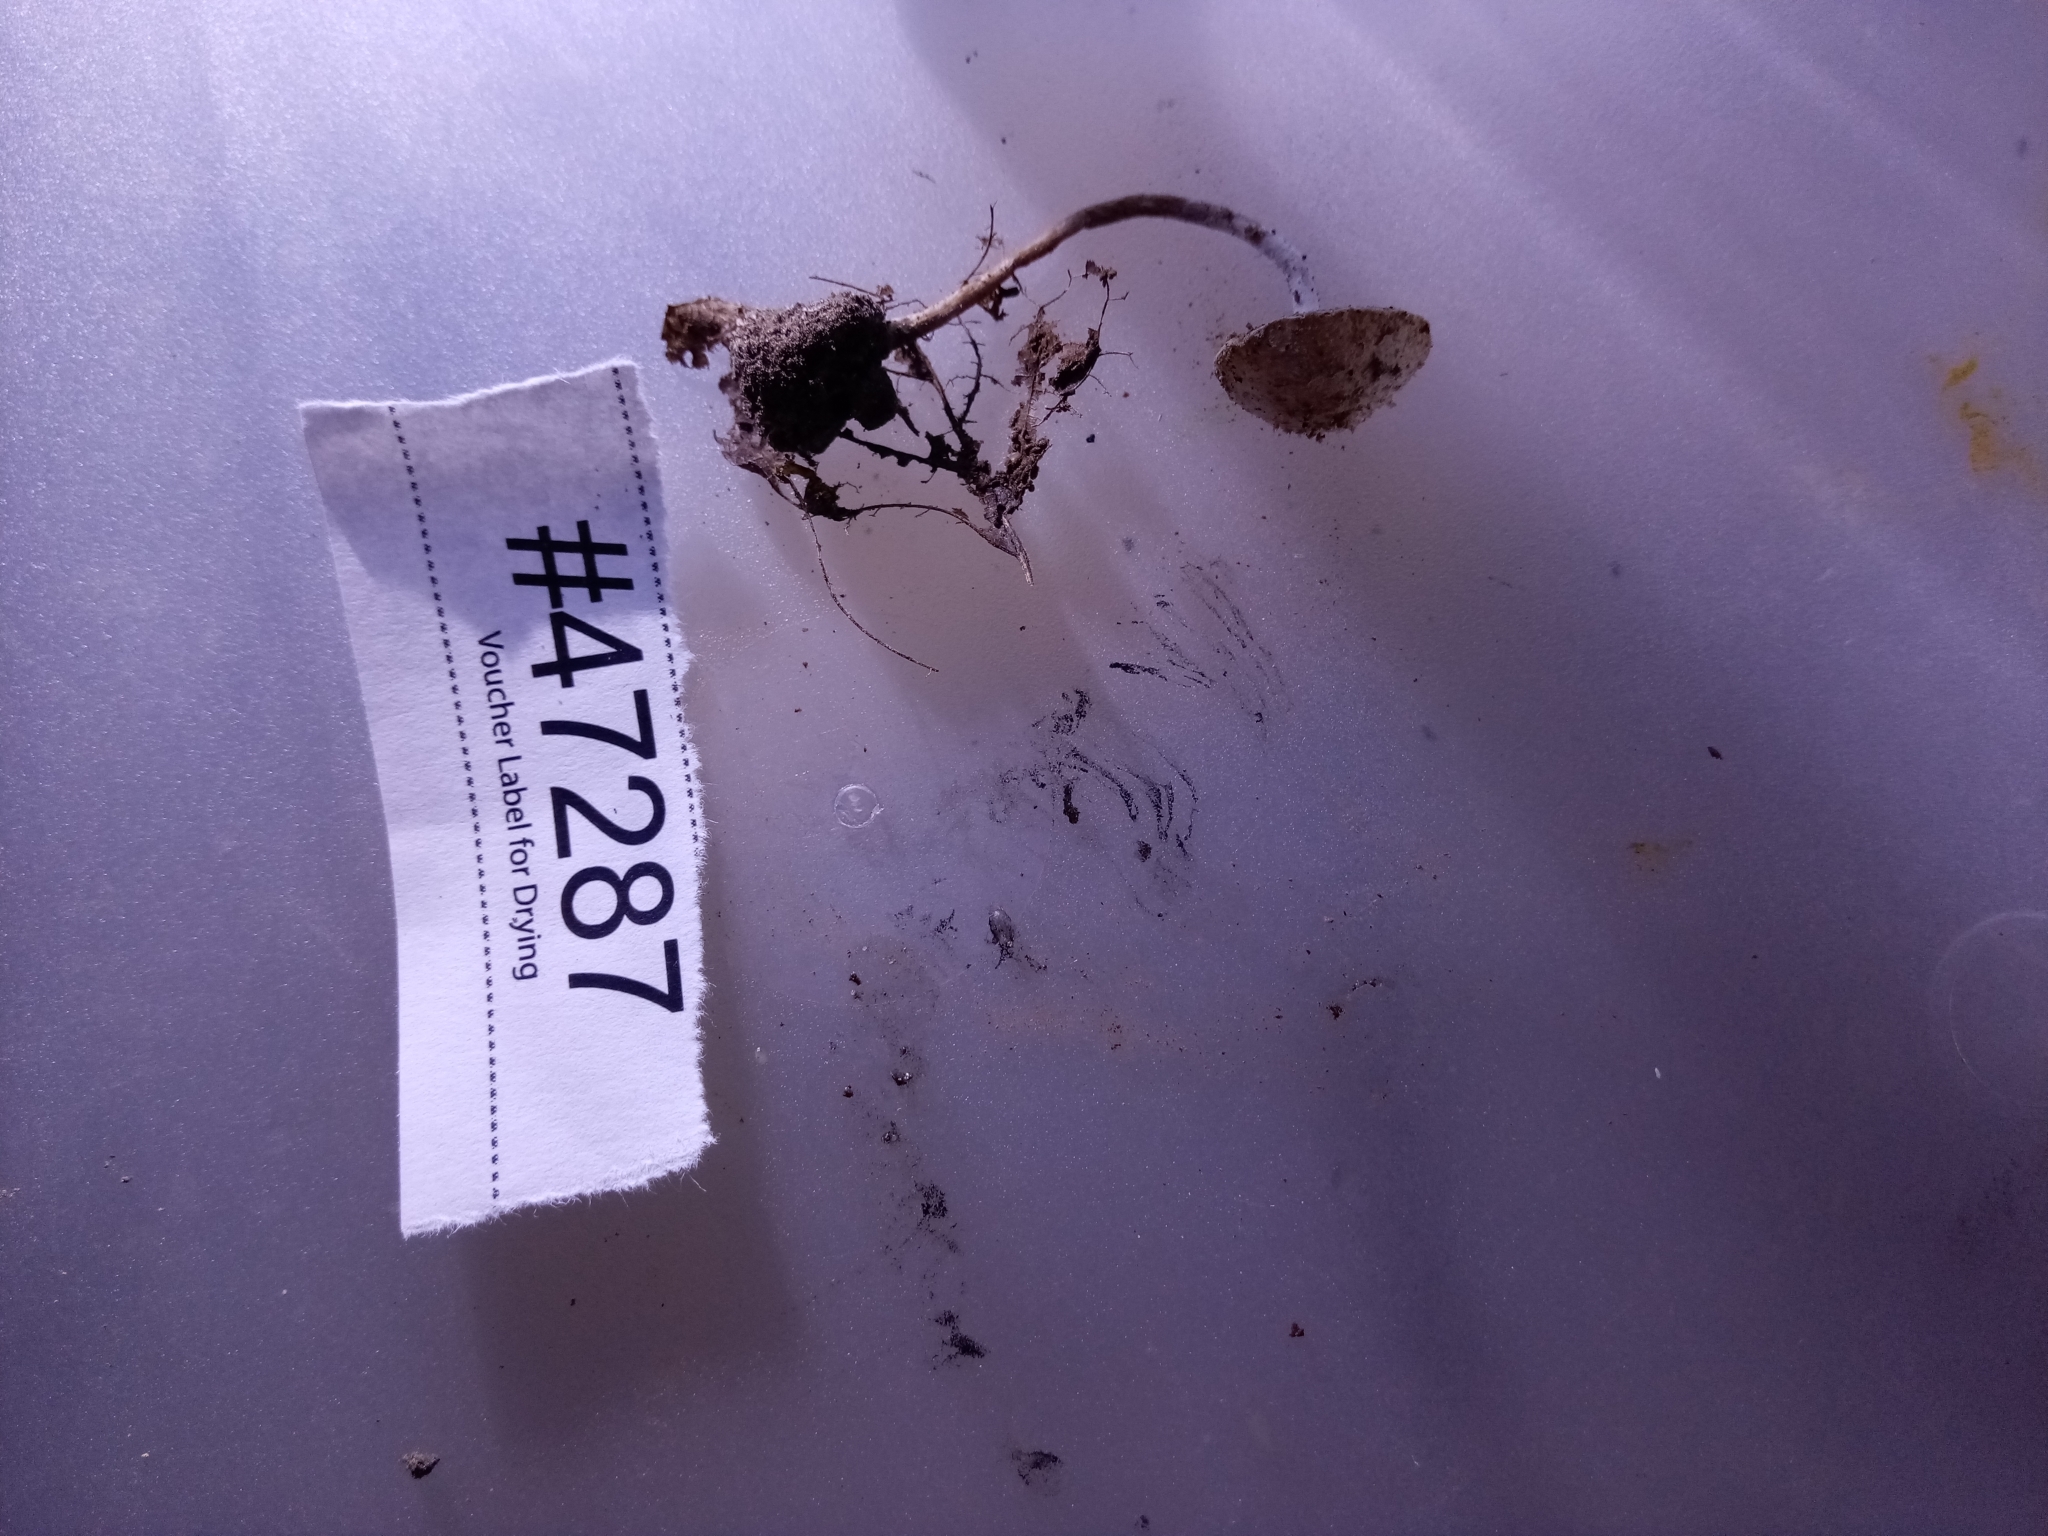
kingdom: Fungi
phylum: Basidiomycota
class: Agaricomycetes
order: Agaricales
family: Agaricaceae
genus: Cystolepiota
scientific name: Cystolepiota fumosifolia
